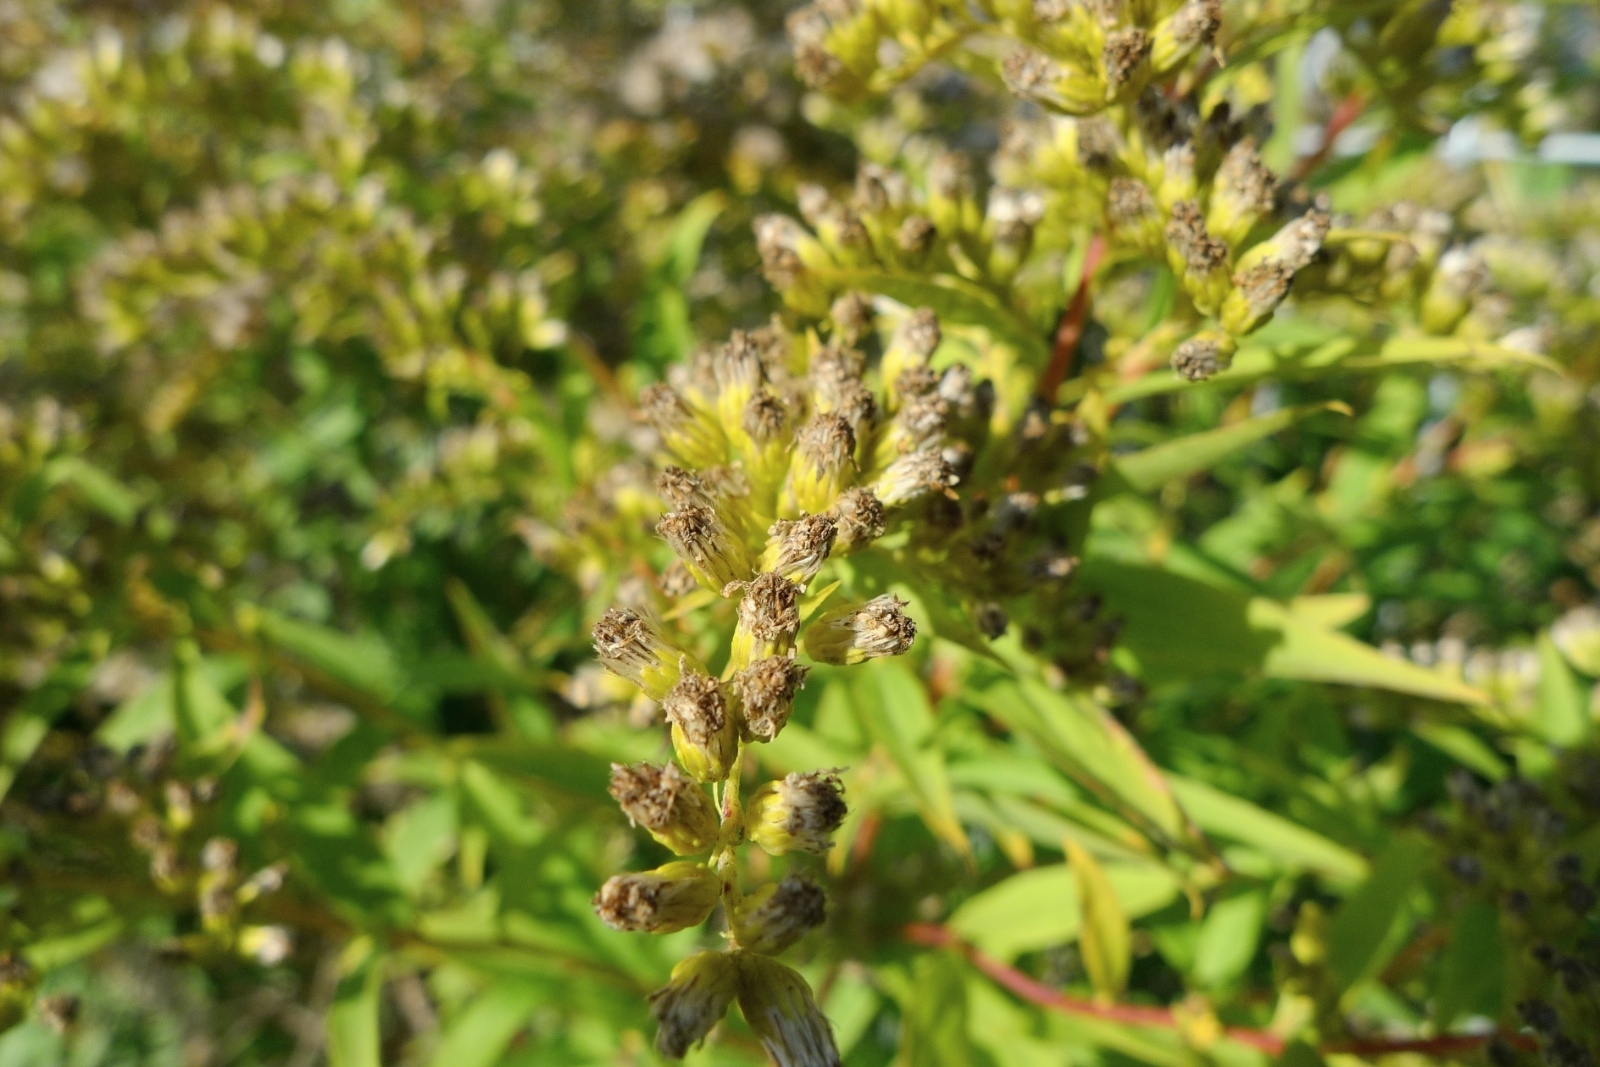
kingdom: Plantae
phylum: Tracheophyta
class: Magnoliopsida
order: Asterales
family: Asteraceae
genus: Solidago
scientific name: Solidago gigantea
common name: Giant goldenrod
